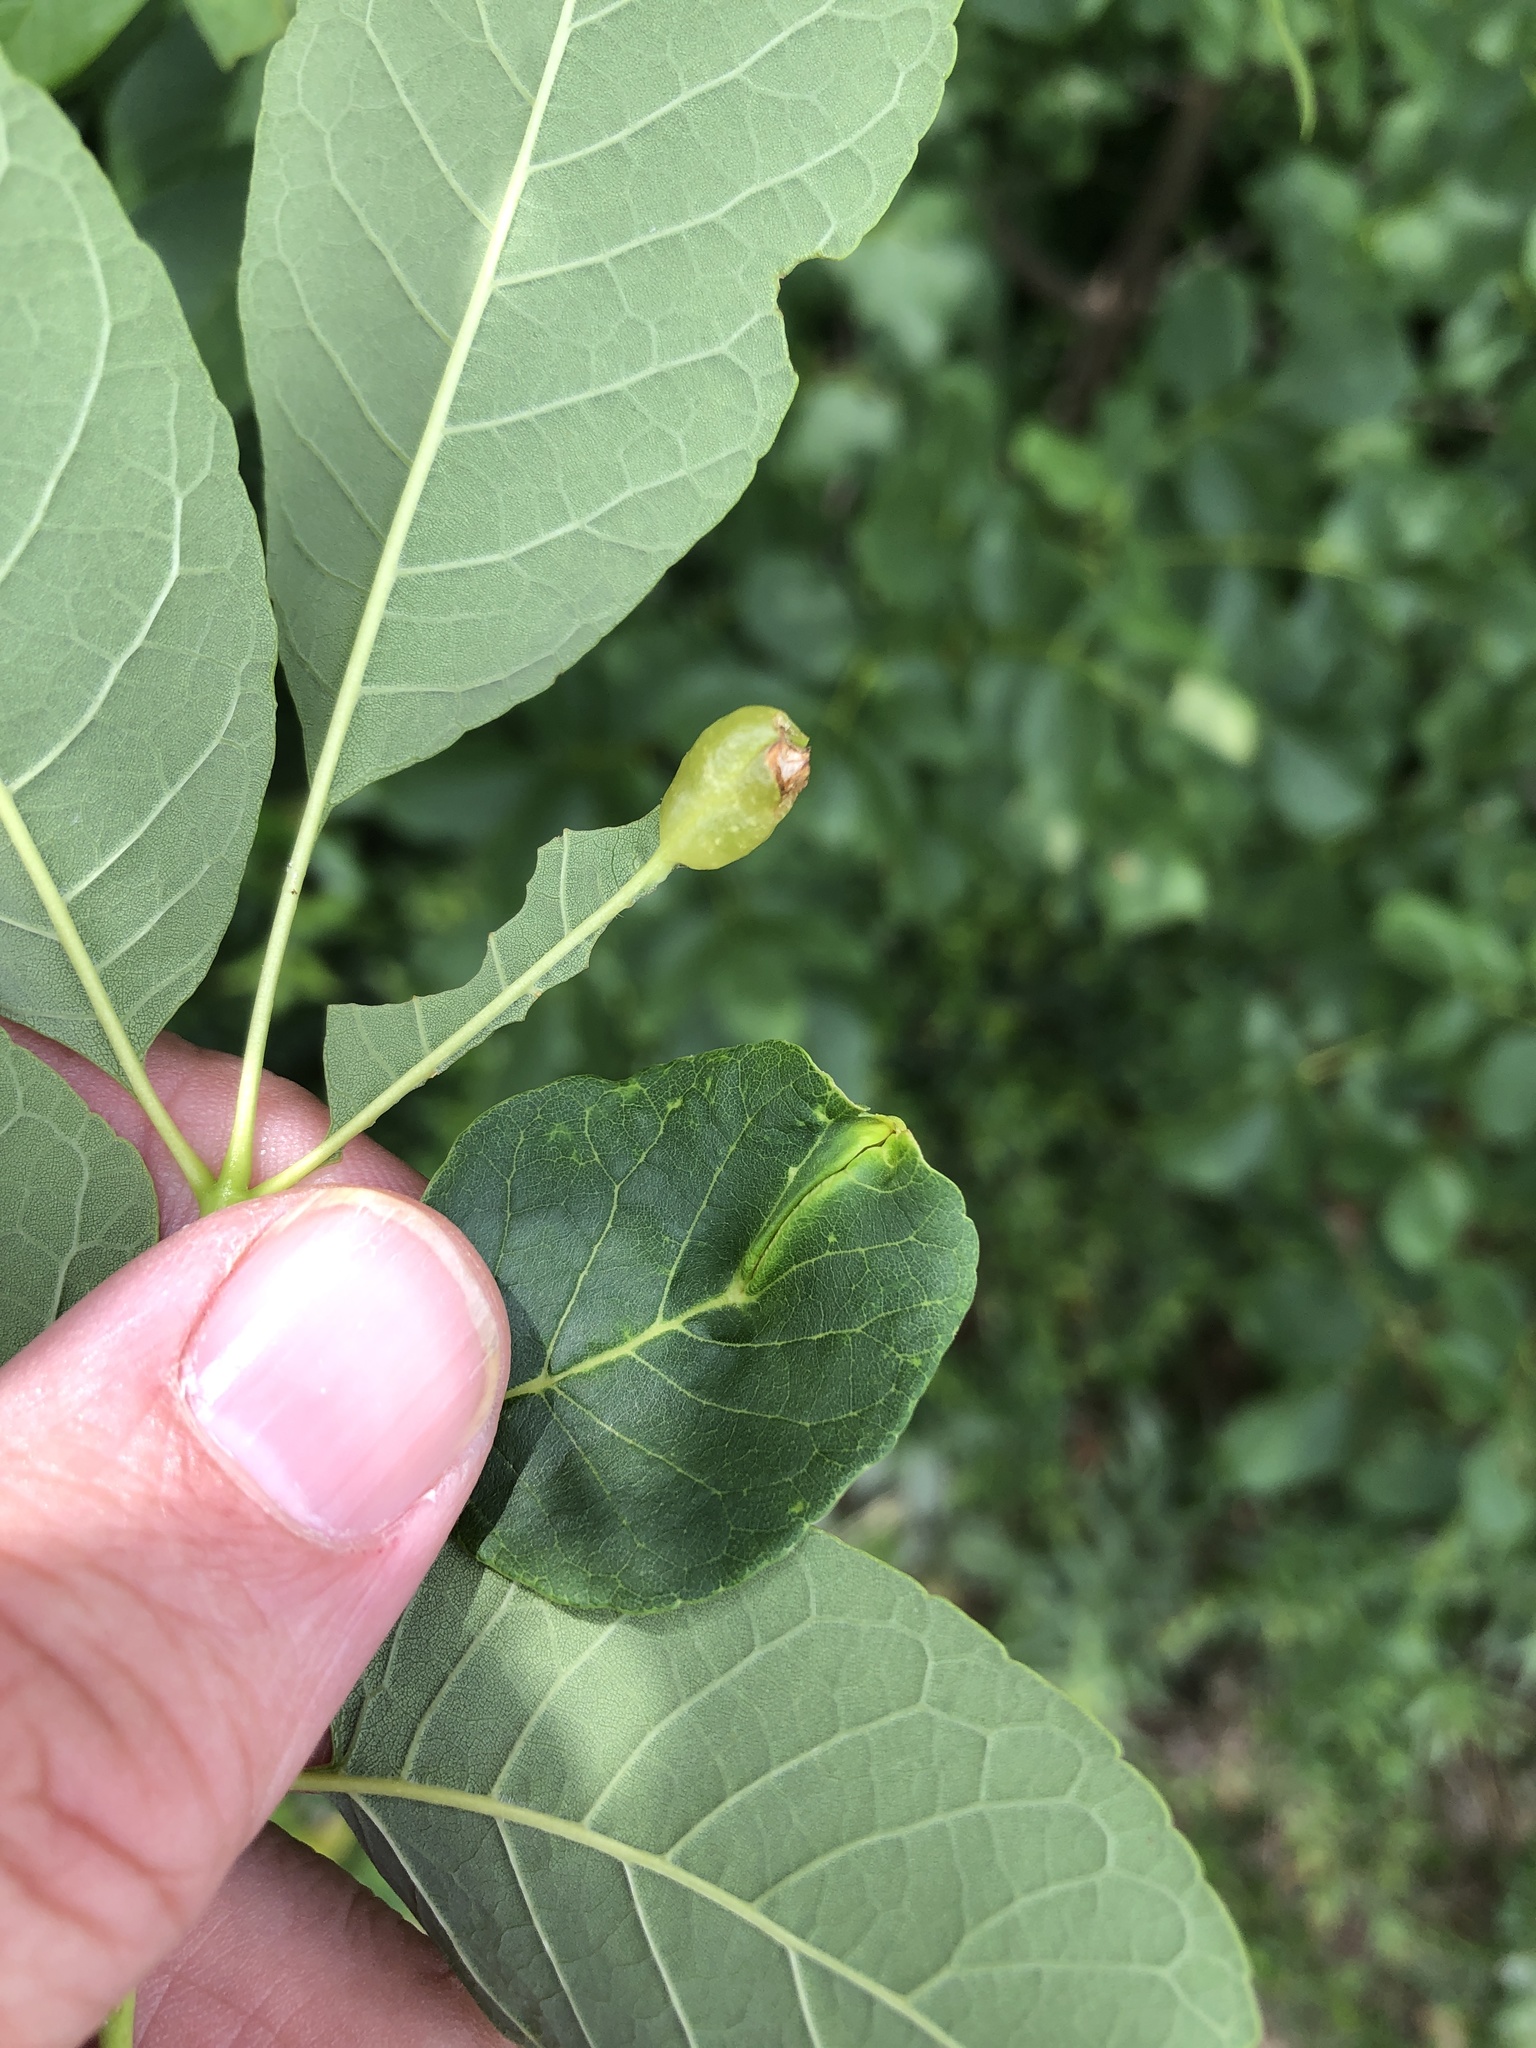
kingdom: Animalia
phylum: Arthropoda
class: Insecta
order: Diptera
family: Cecidomyiidae
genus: Dasineura
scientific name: Dasineura tumidosae
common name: Ash petiole gall midge
